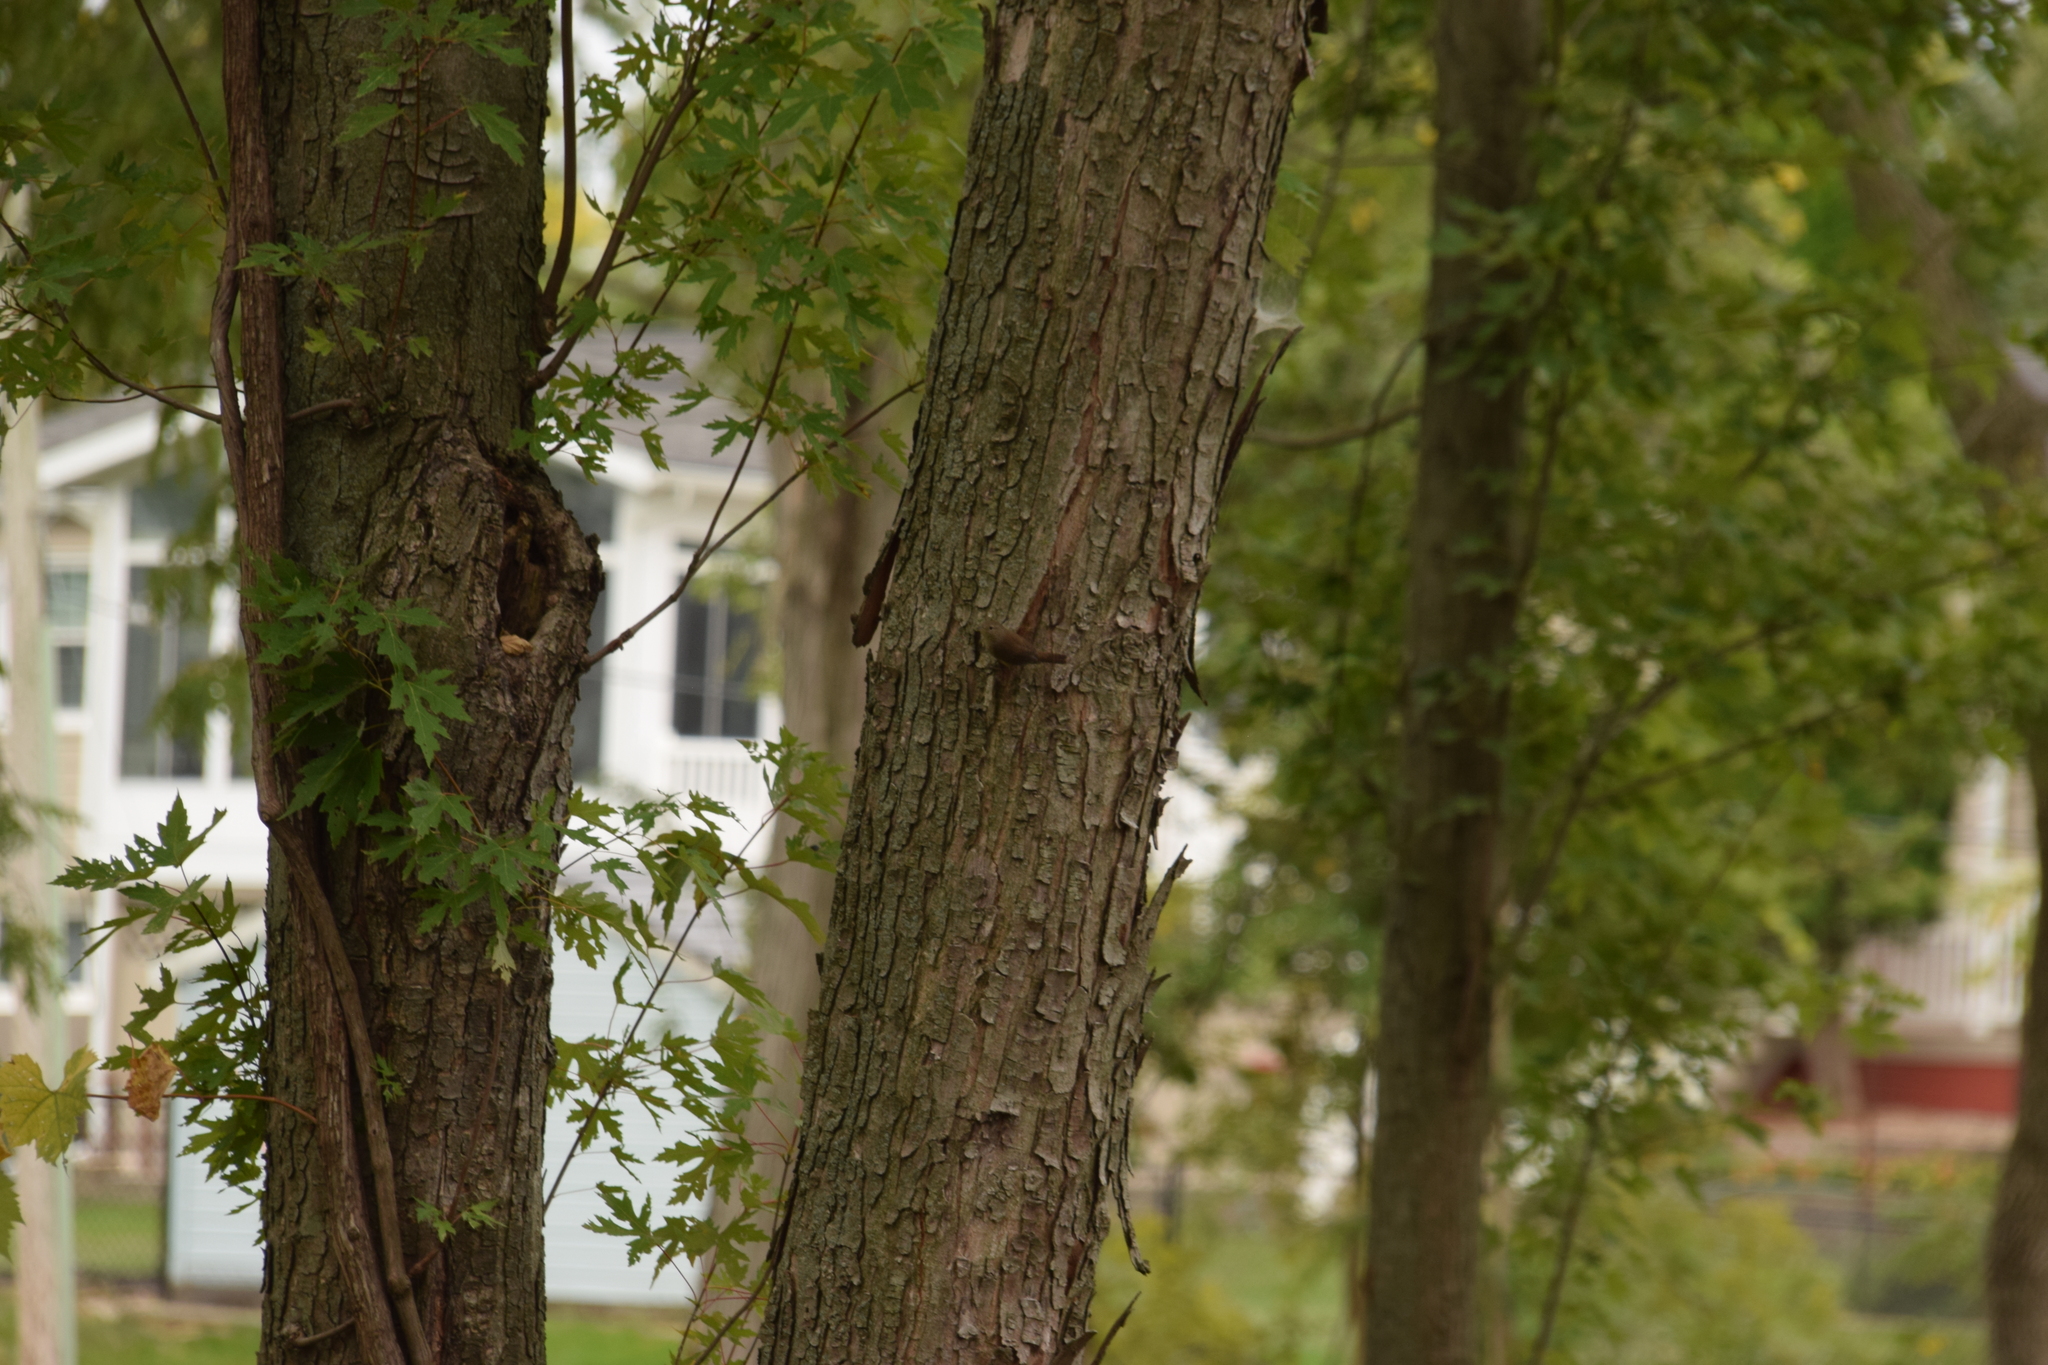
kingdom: Animalia
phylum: Chordata
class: Aves
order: Passeriformes
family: Troglodytidae
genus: Troglodytes
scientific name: Troglodytes aedon
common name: House wren
